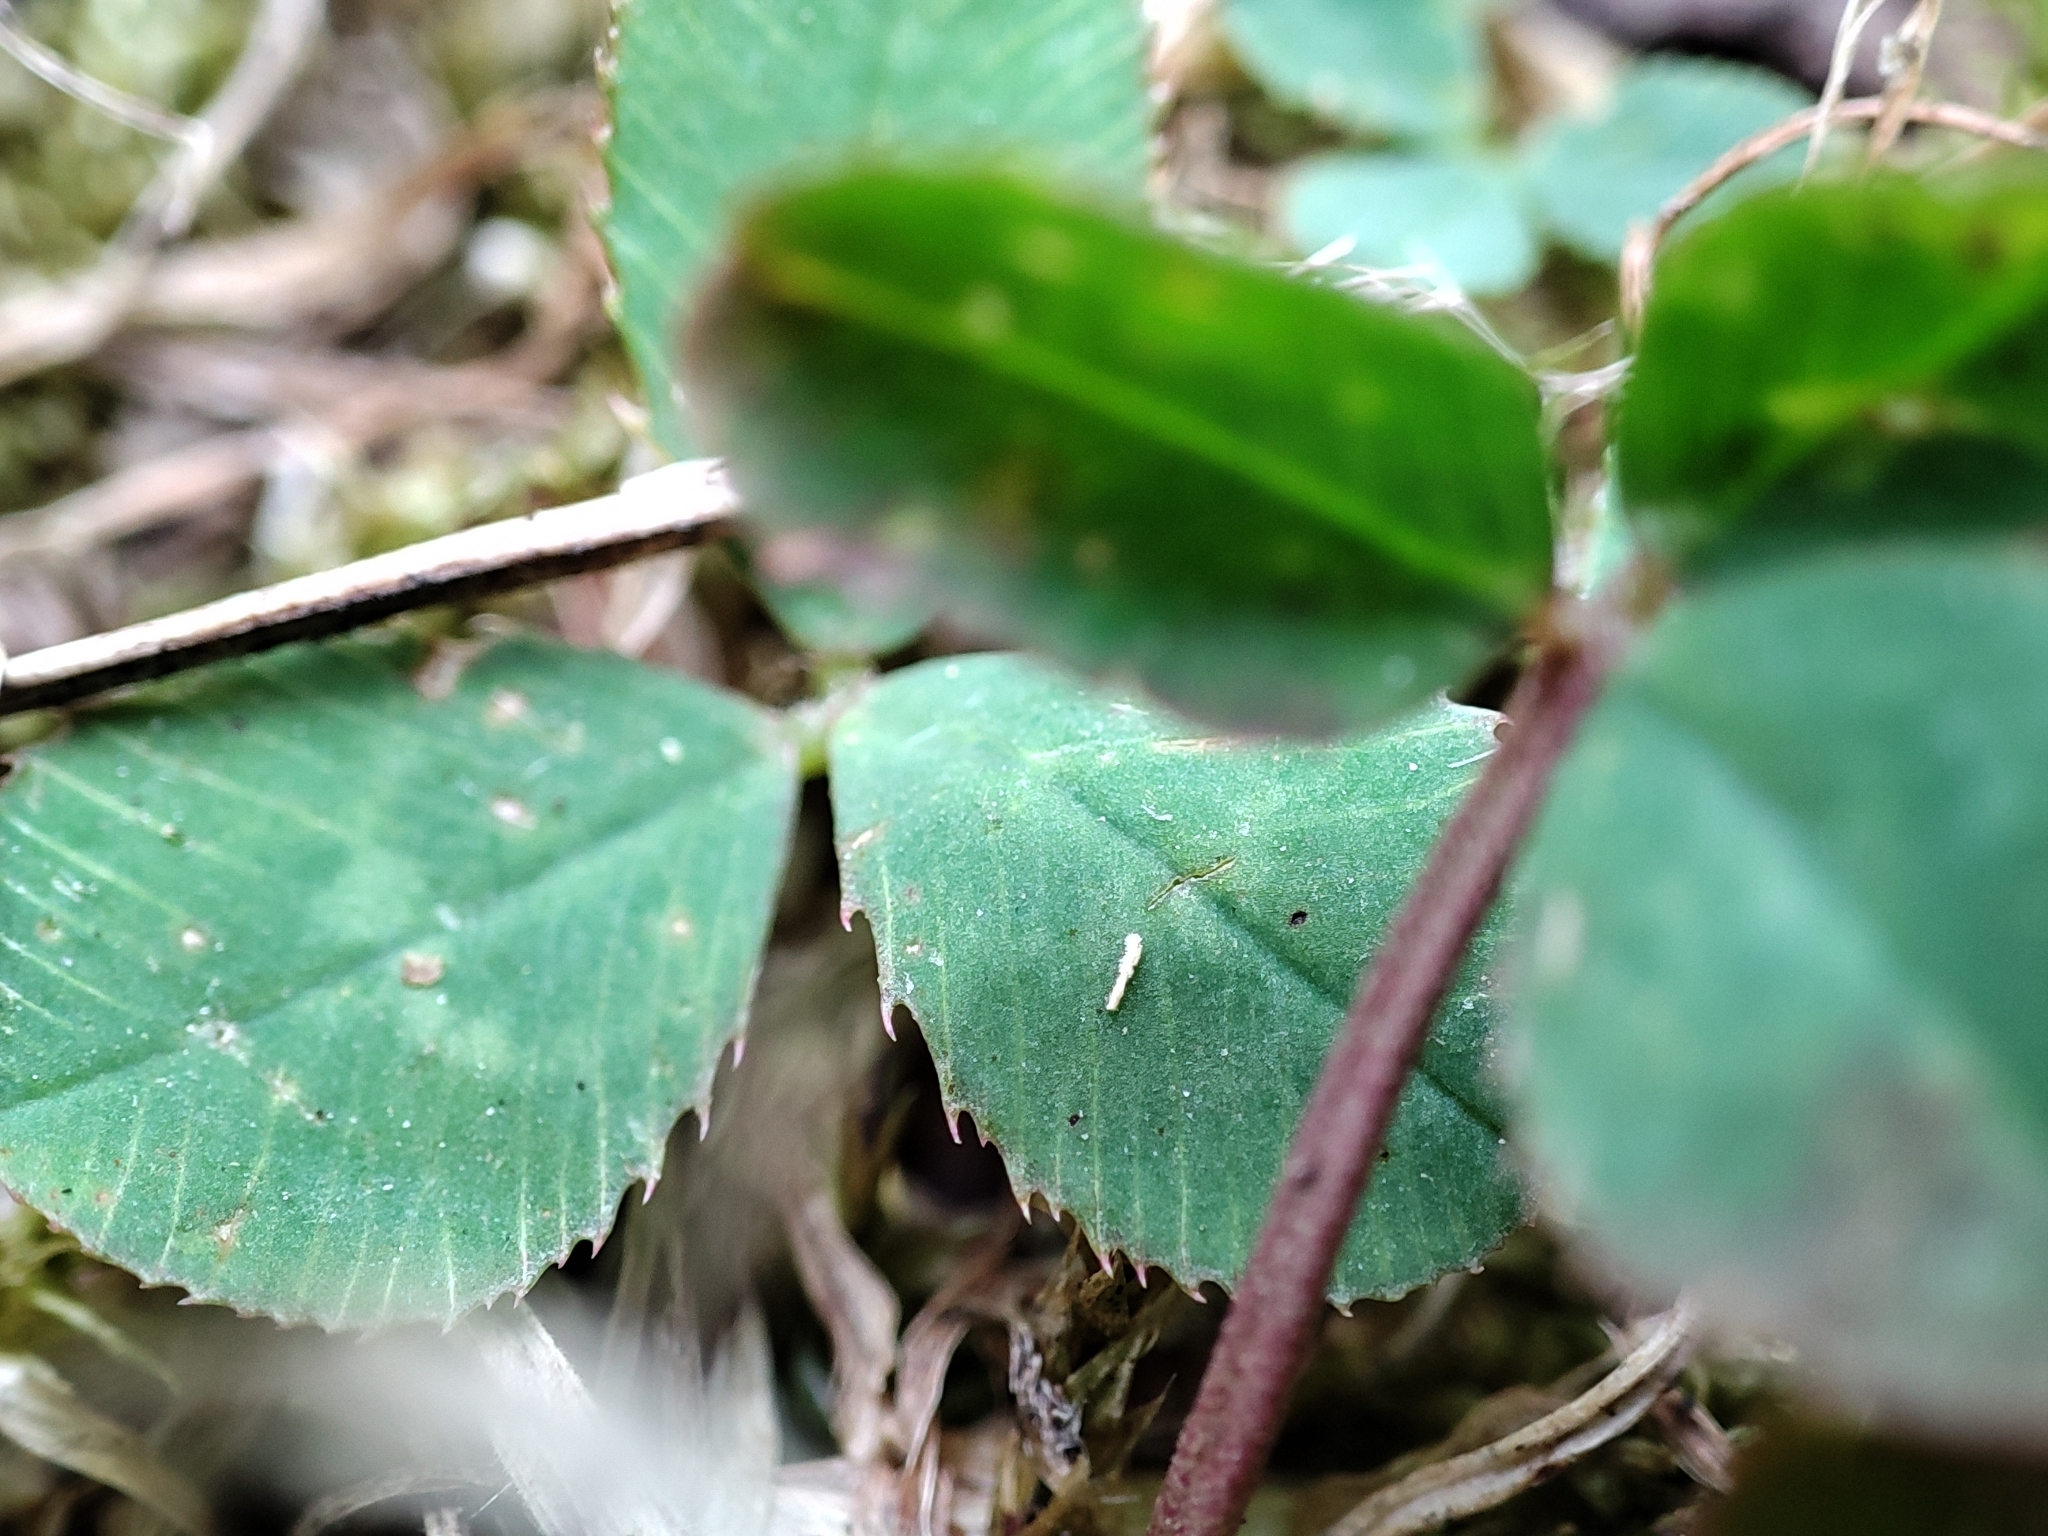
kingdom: Plantae
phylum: Tracheophyta
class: Magnoliopsida
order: Fabales
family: Fabaceae
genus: Trifolium
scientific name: Trifolium repens
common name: White clover
